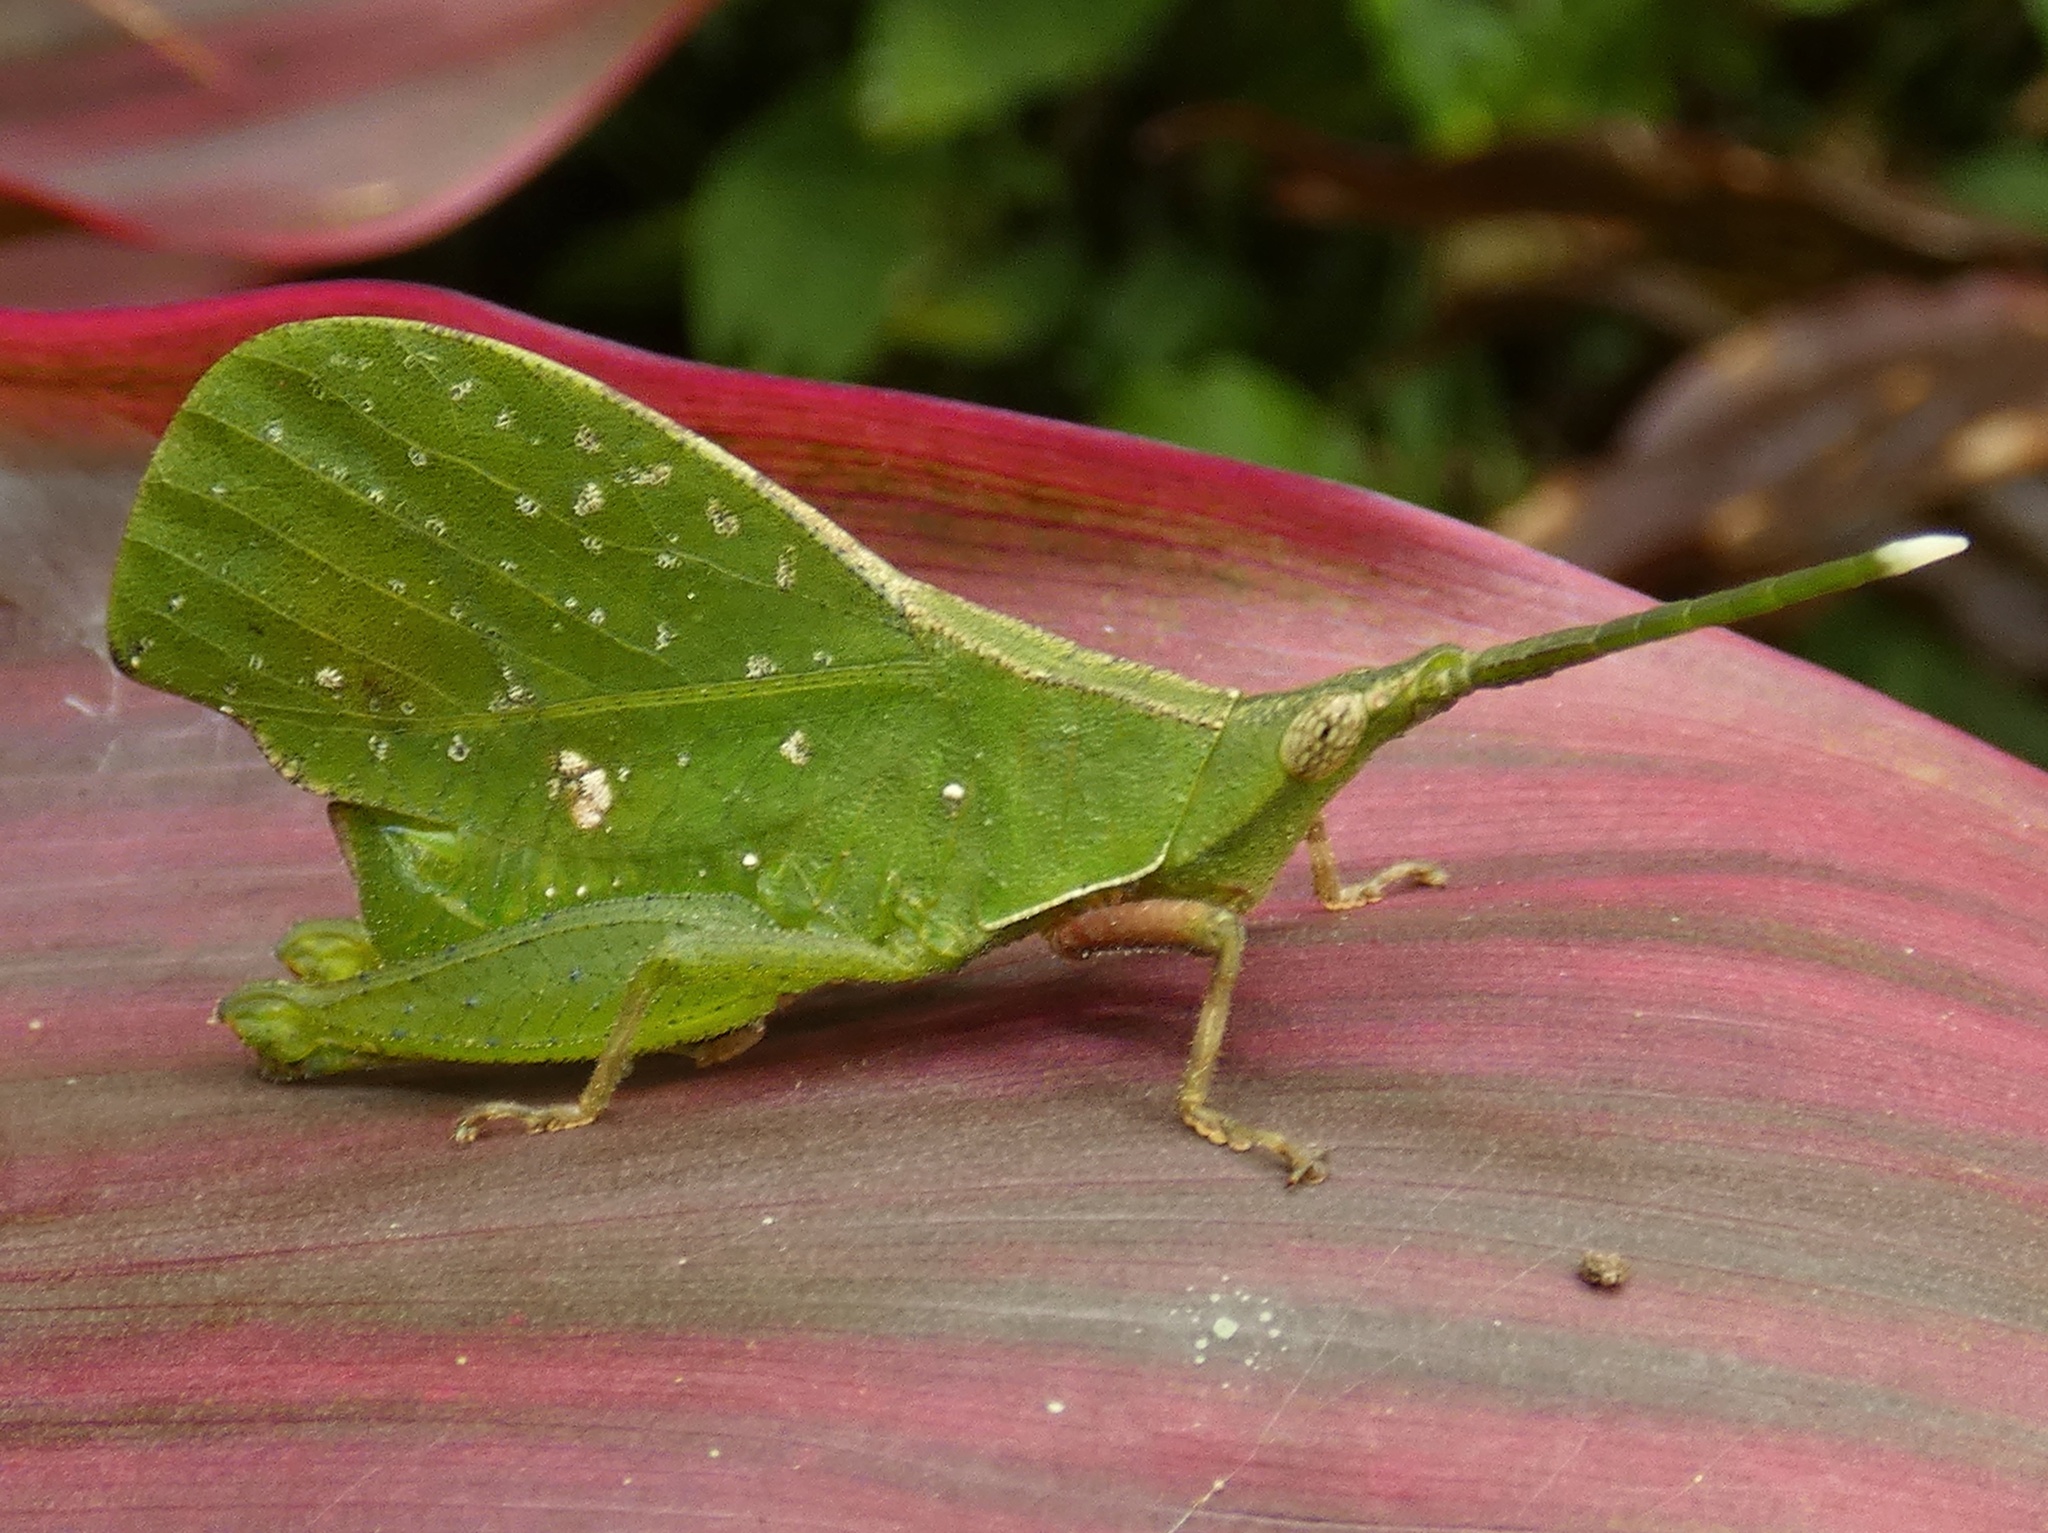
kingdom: Animalia
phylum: Arthropoda
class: Insecta
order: Orthoptera
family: Trigonopterygidae
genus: Systella
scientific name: Systella philippensis
